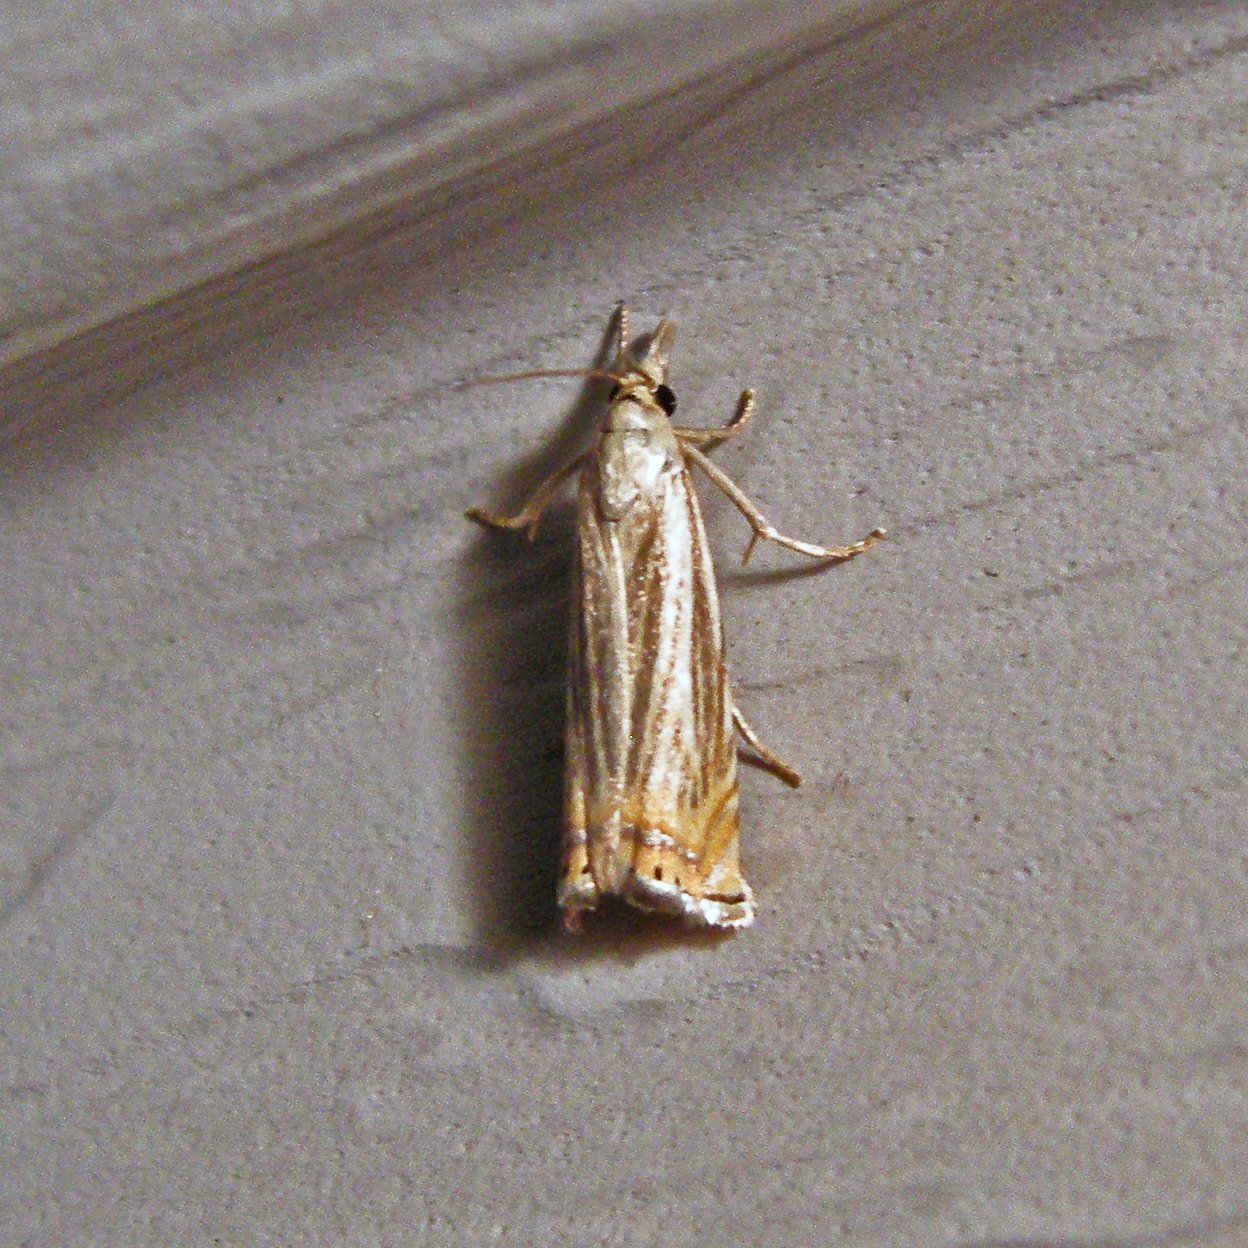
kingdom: Animalia
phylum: Arthropoda
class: Insecta
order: Lepidoptera
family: Crambidae
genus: Chrysoteuchia
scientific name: Chrysoteuchia topiarius
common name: Topiary grass-veneer
